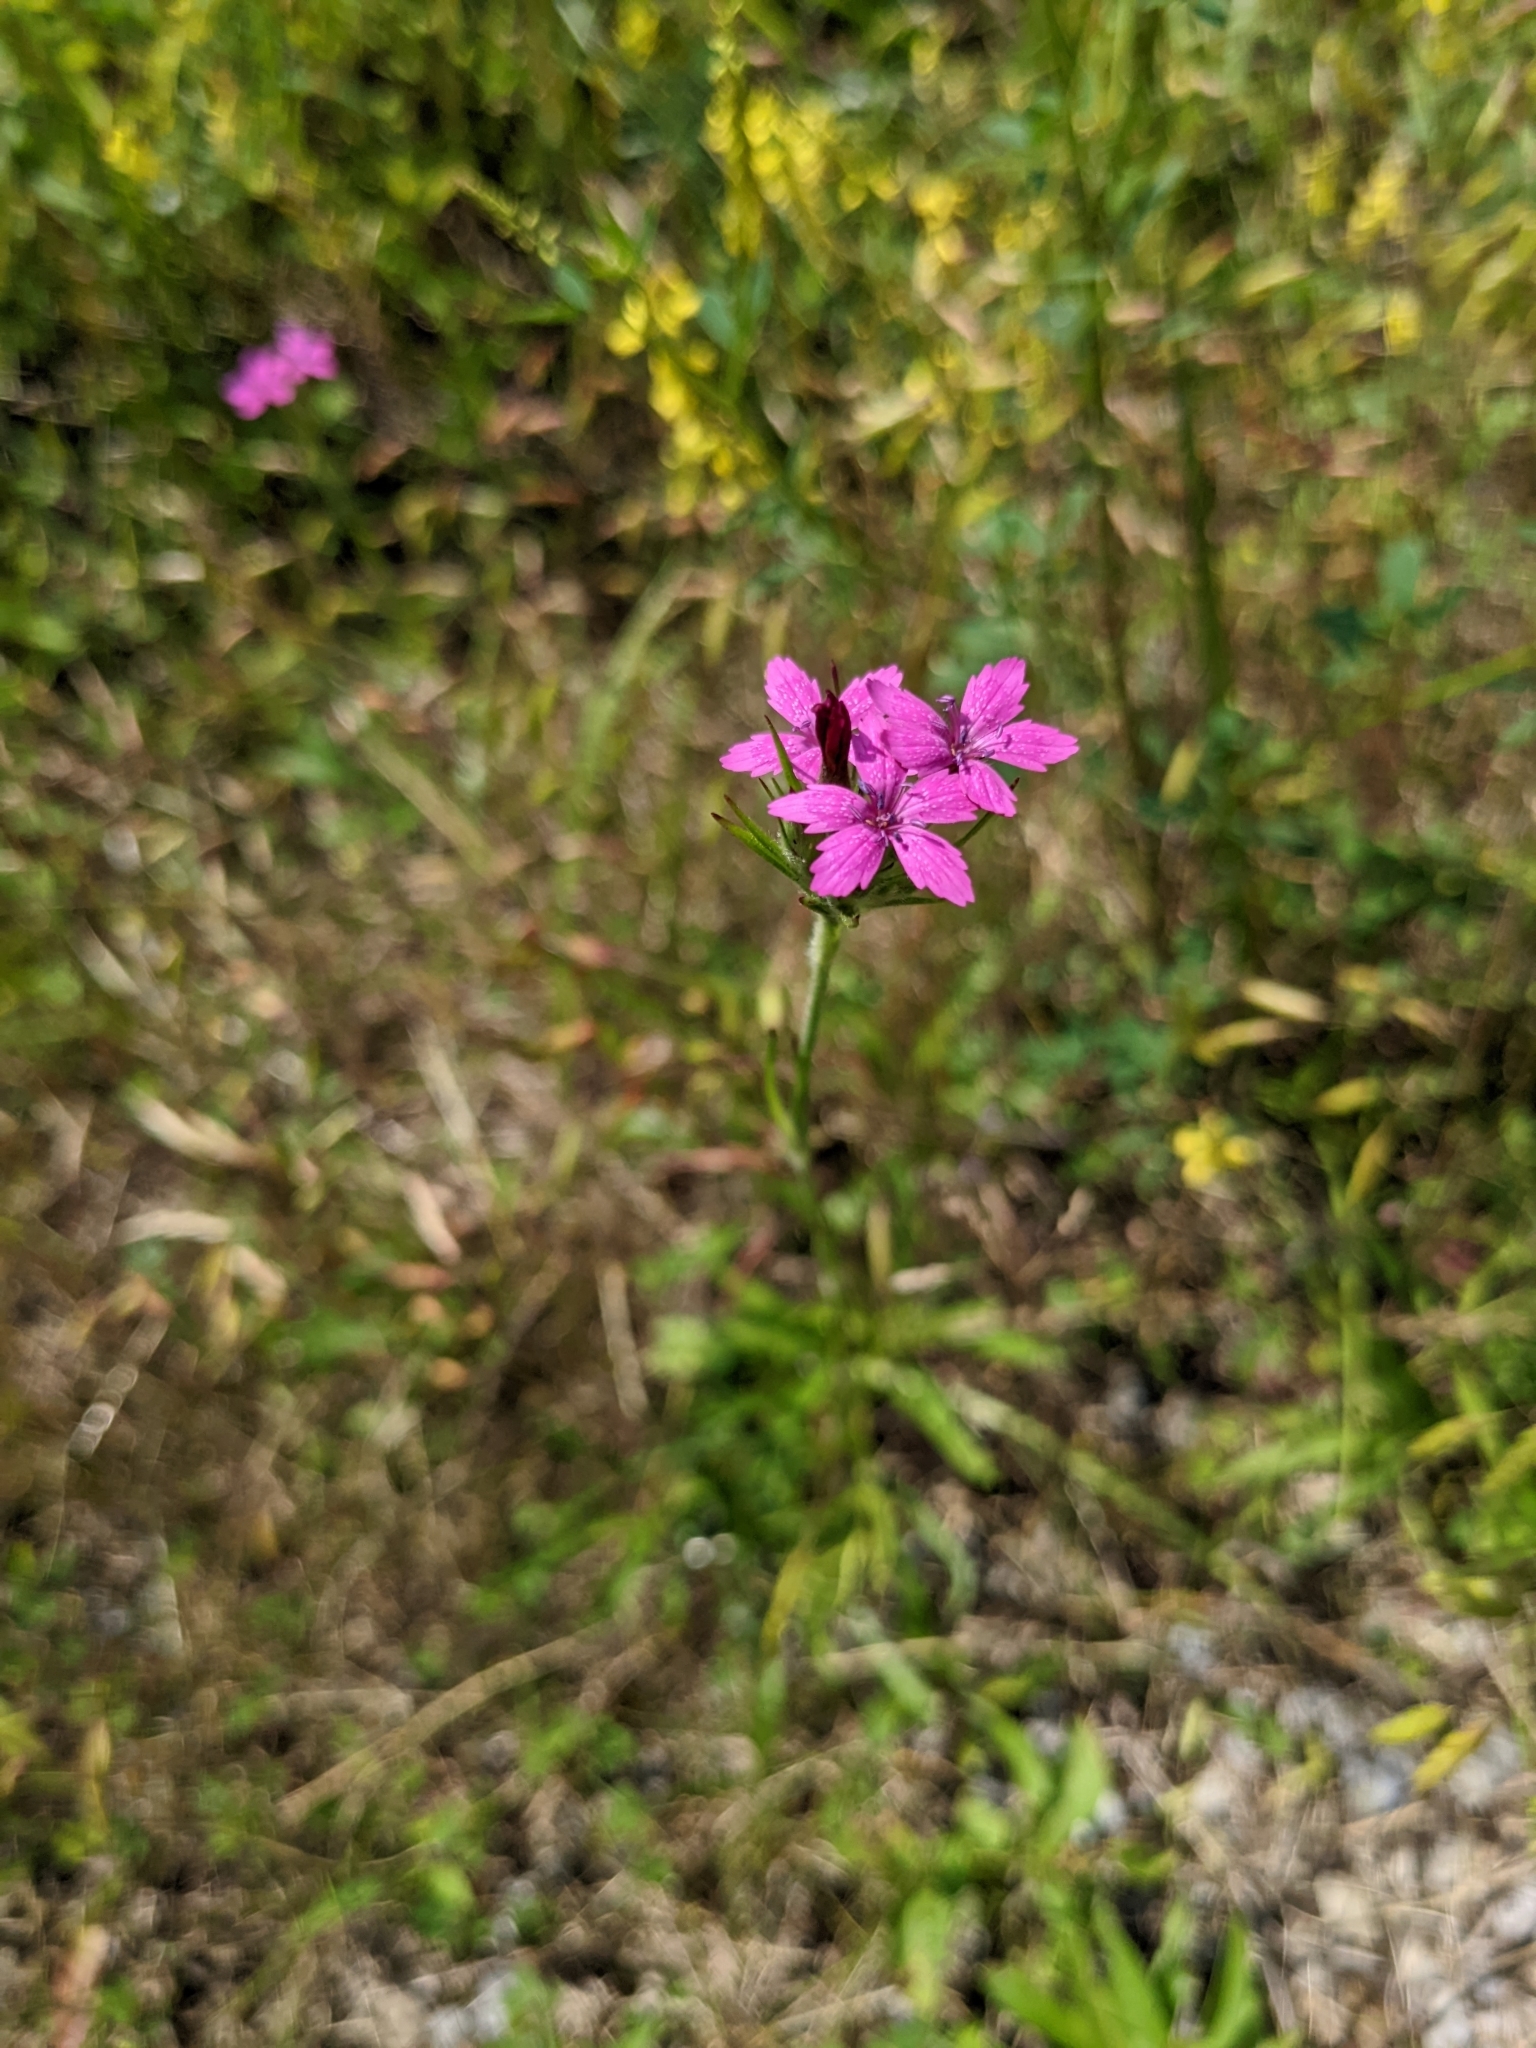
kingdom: Plantae
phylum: Tracheophyta
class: Magnoliopsida
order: Caryophyllales
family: Caryophyllaceae
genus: Dianthus
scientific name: Dianthus armeria
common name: Deptford pink
